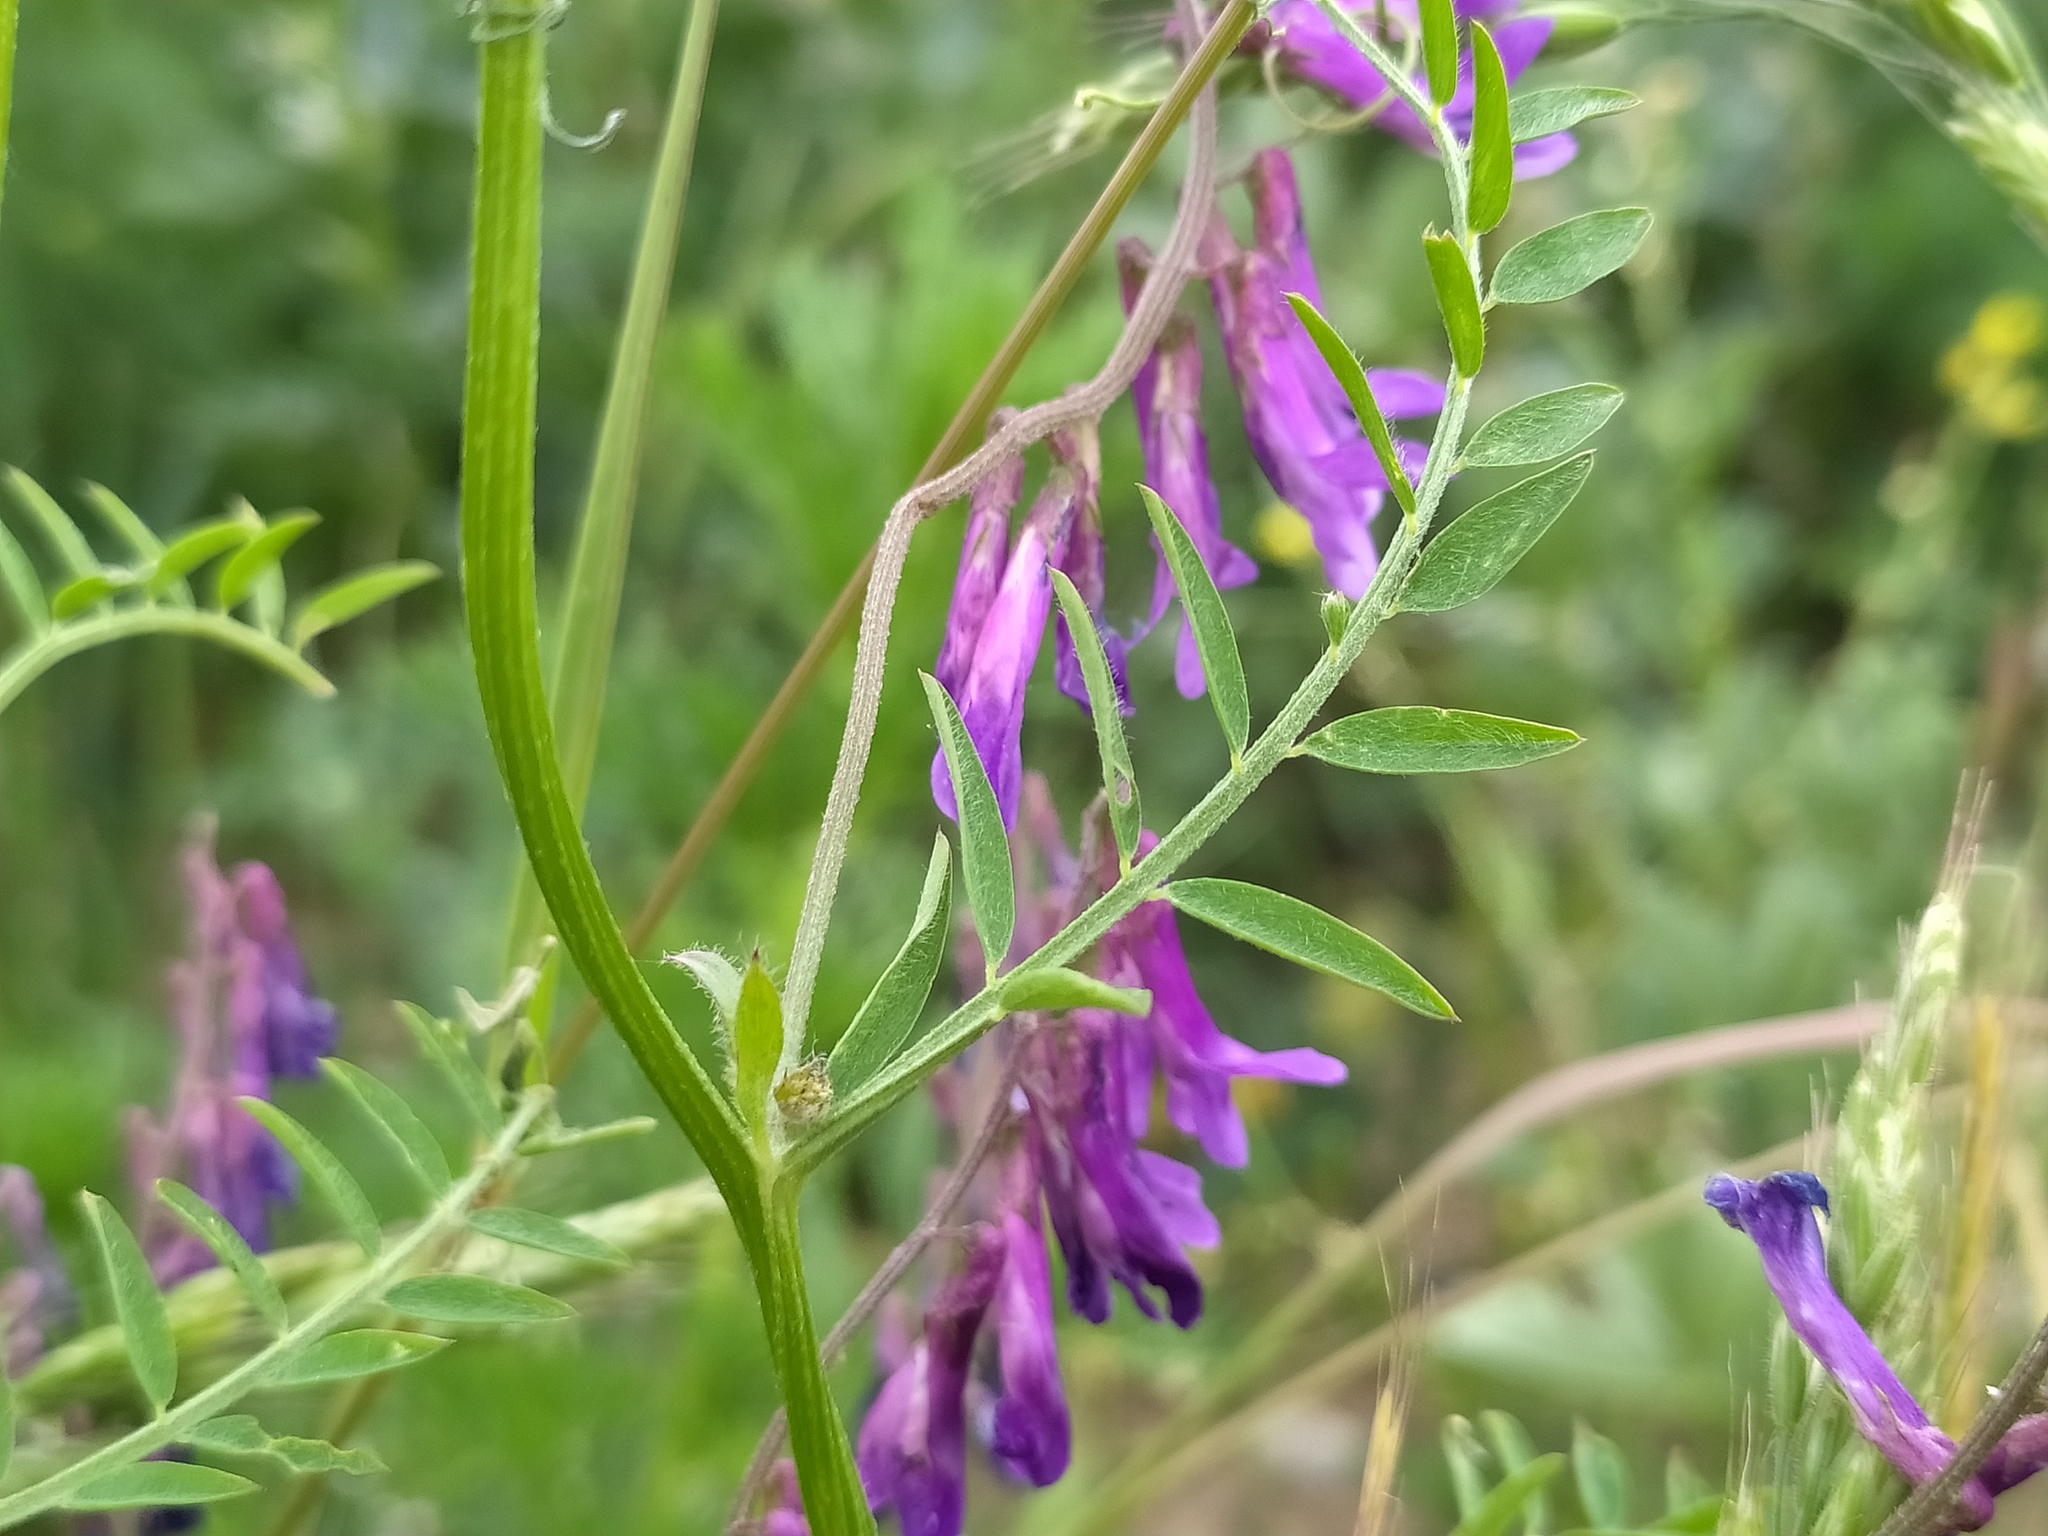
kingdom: Plantae
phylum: Tracheophyta
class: Magnoliopsida
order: Fabales
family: Fabaceae
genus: Vicia
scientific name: Vicia villosa
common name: Fodder vetch
